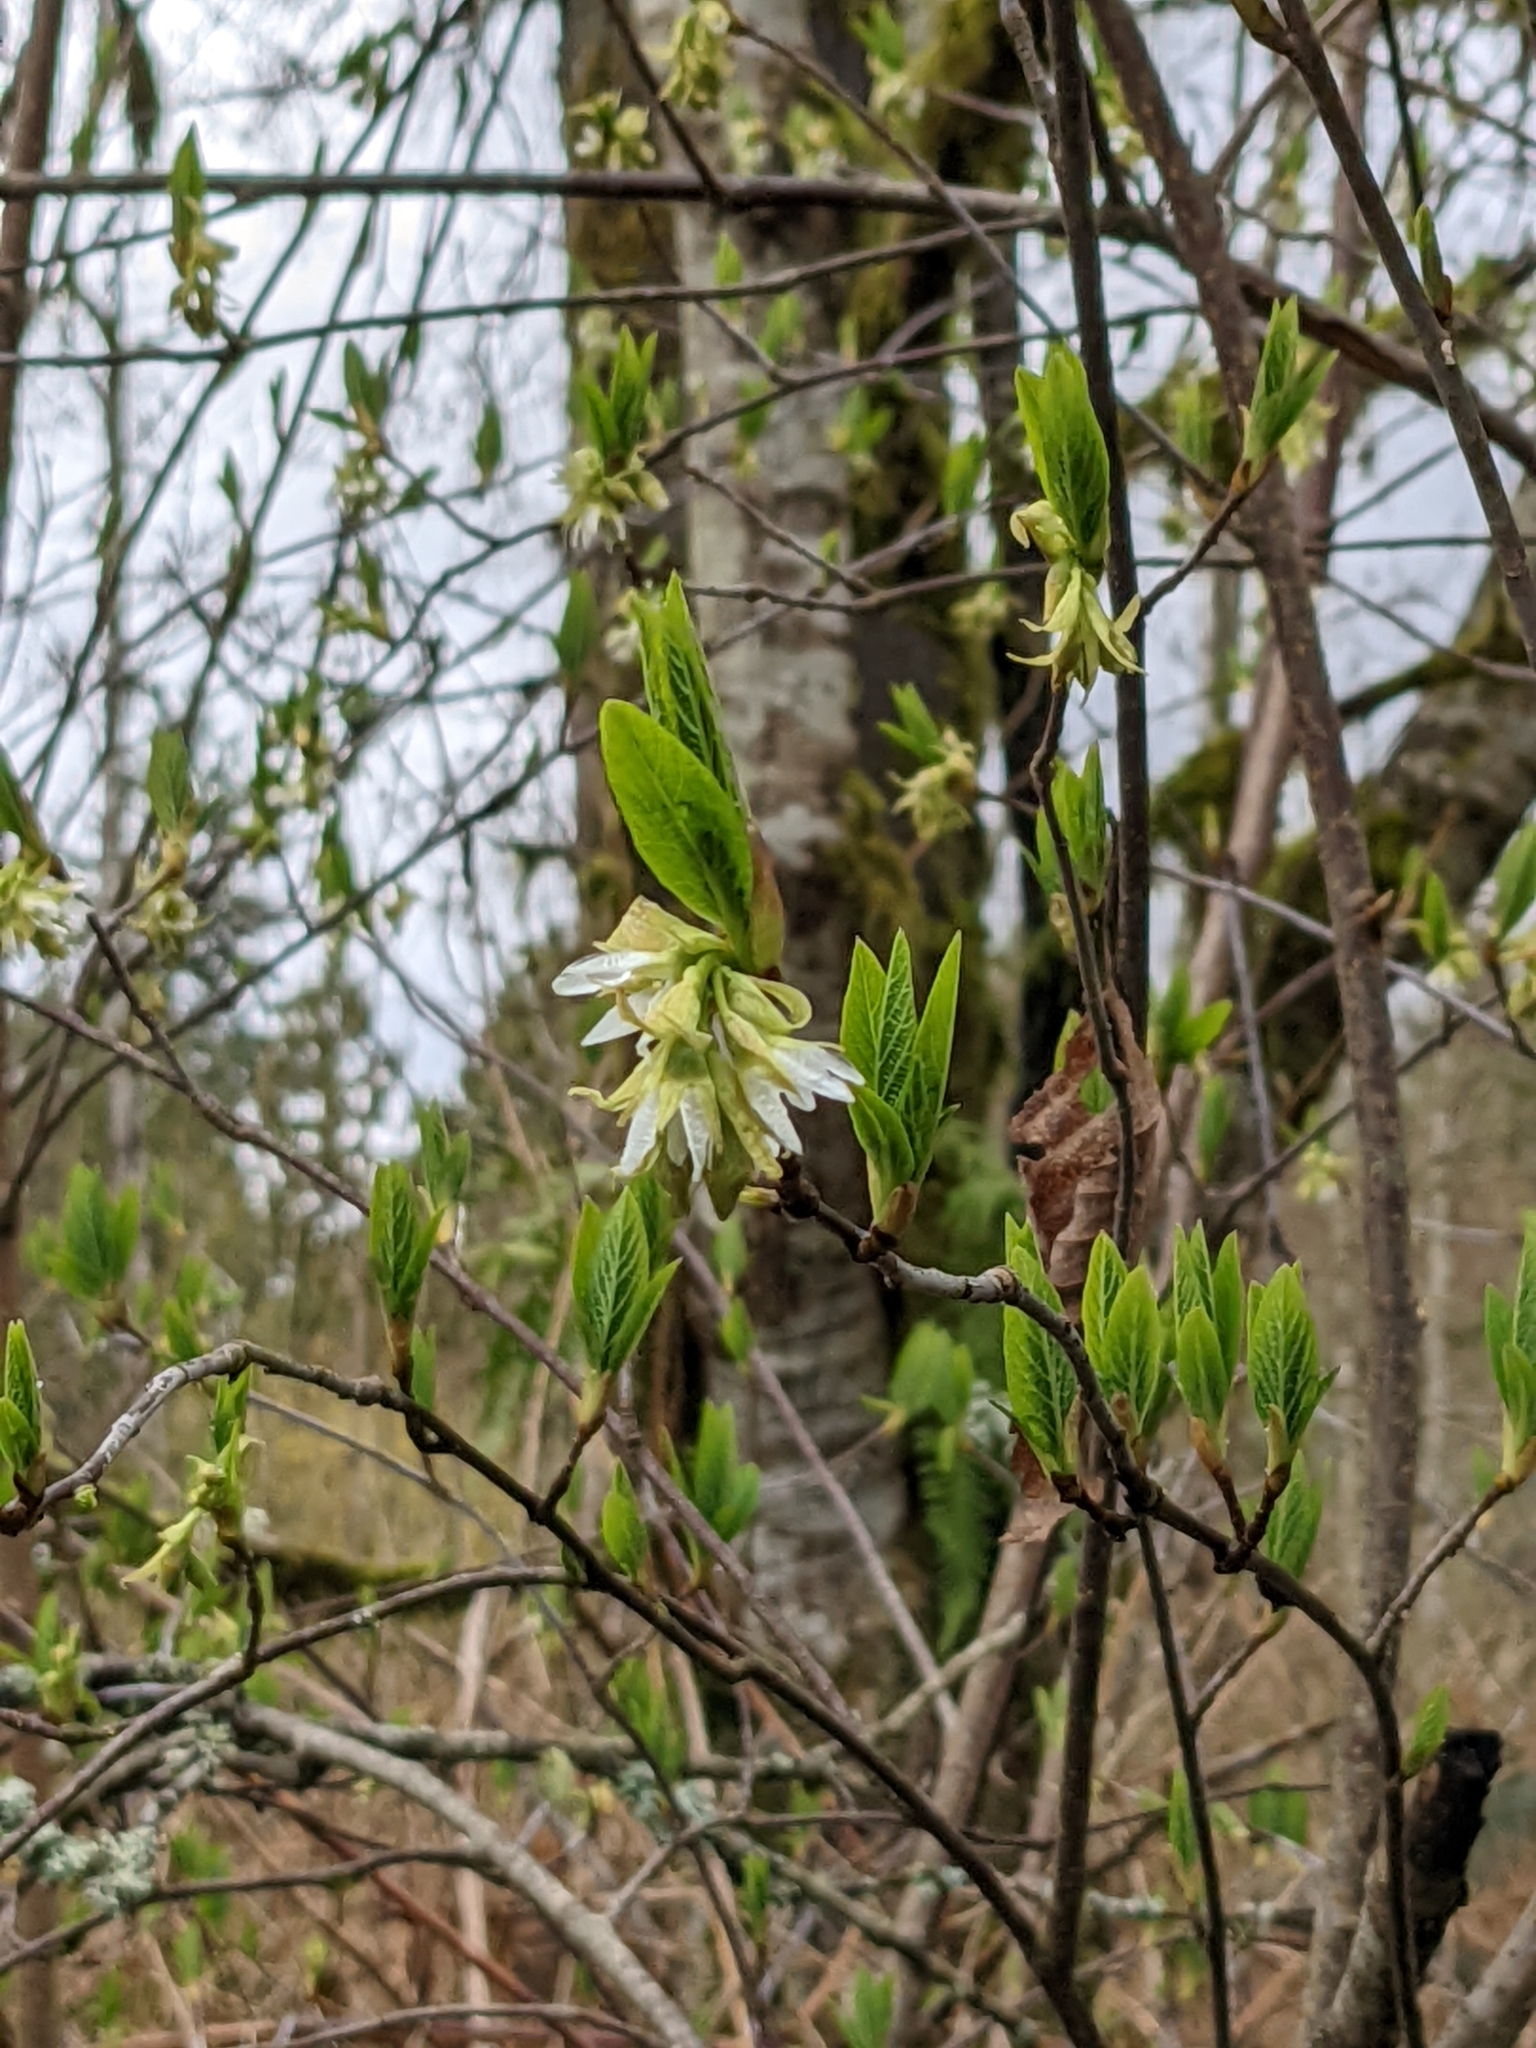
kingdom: Plantae
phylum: Tracheophyta
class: Magnoliopsida
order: Rosales
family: Rosaceae
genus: Oemleria
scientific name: Oemleria cerasiformis
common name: Osoberry
